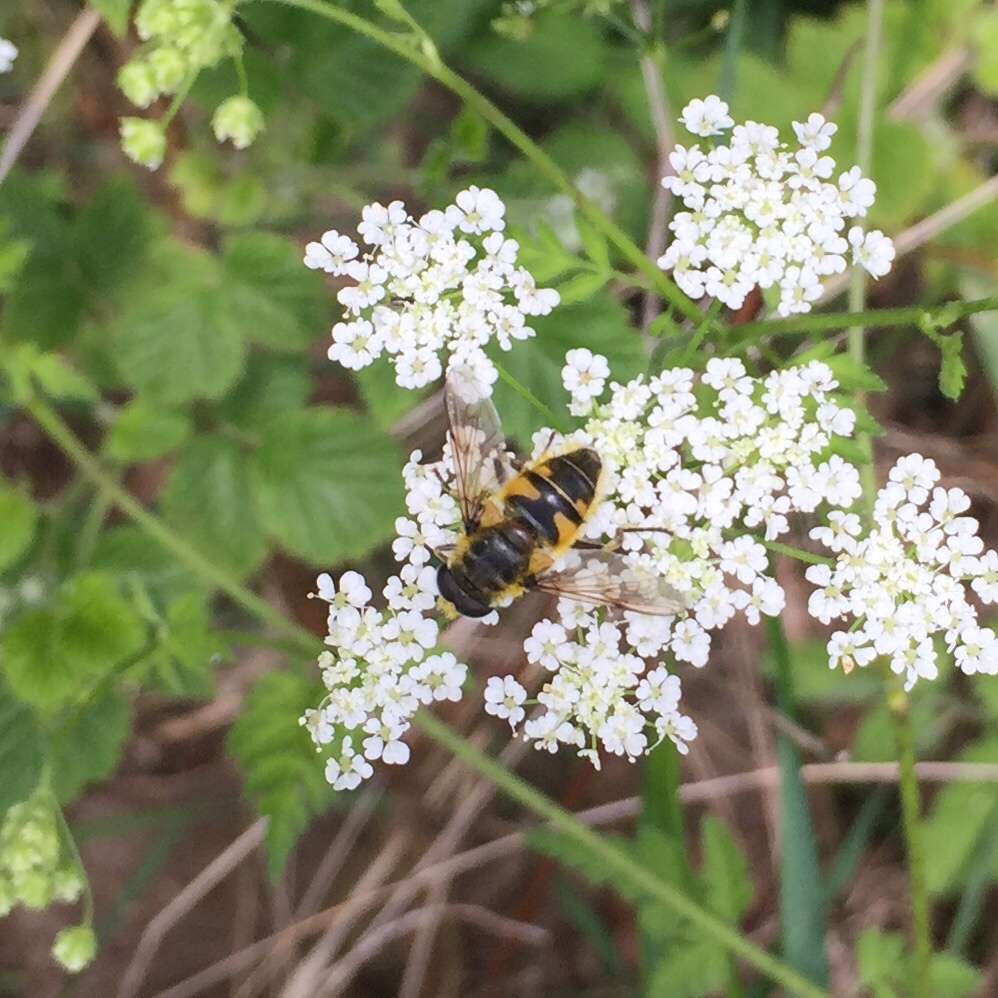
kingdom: Animalia
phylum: Arthropoda
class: Insecta
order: Diptera
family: Syrphidae
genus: Myathropa
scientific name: Myathropa florea
